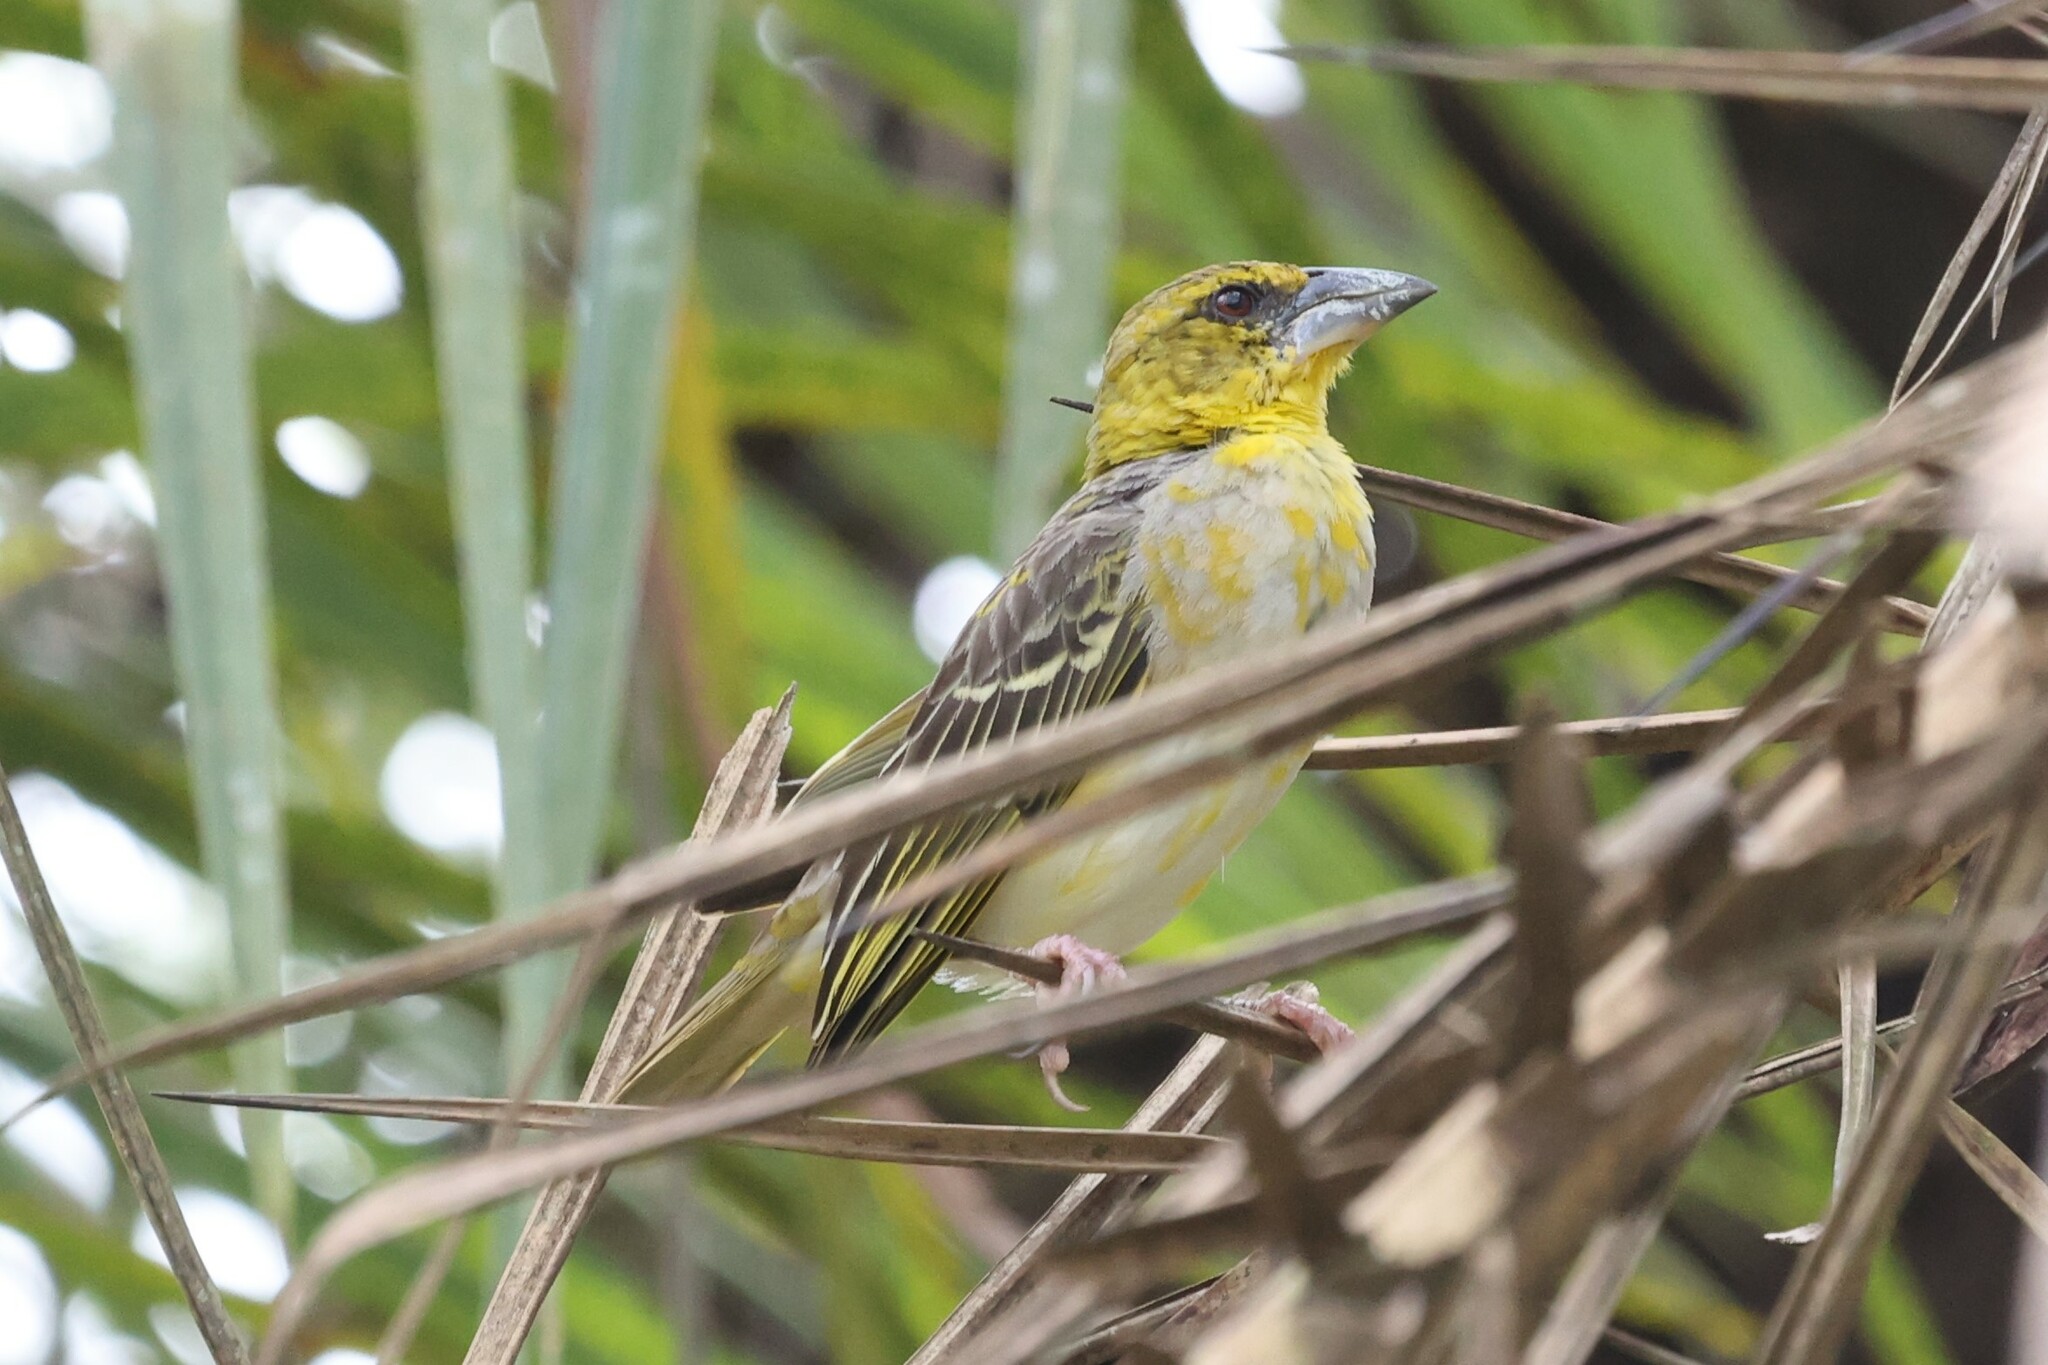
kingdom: Animalia
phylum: Chordata
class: Aves
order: Passeriformes
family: Ploceidae
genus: Ploceus
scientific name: Ploceus cucullatus
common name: Village weaver
